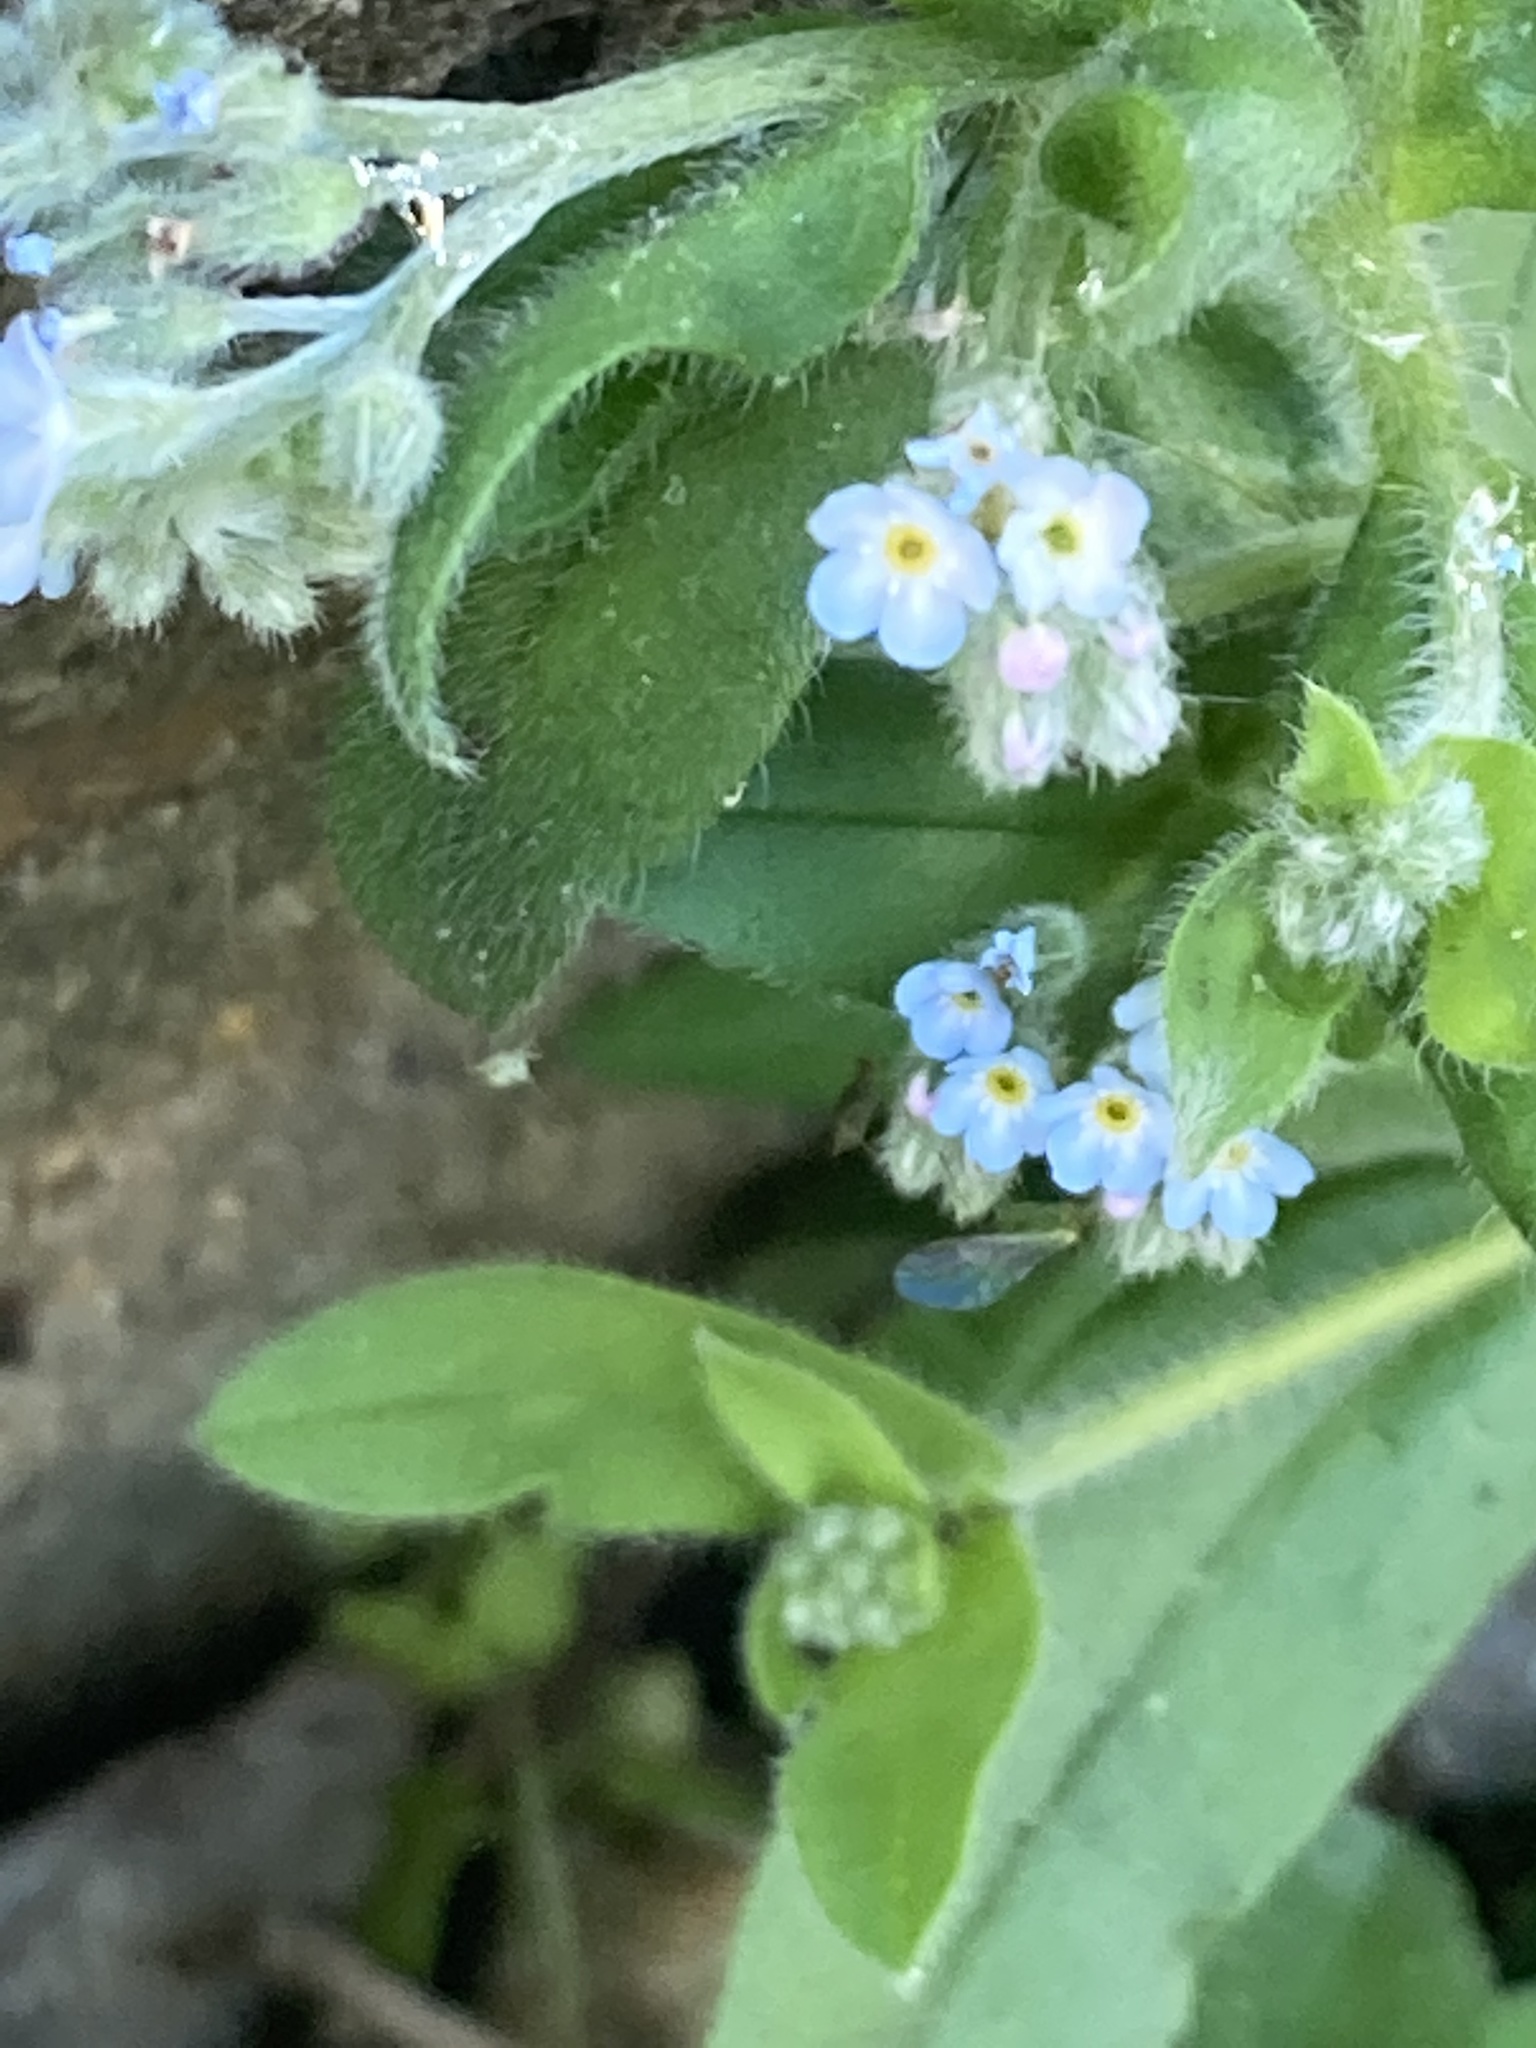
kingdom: Plantae
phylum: Tracheophyta
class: Magnoliopsida
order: Boraginales
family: Boraginaceae
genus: Myosotis
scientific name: Myosotis arvensis
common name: Field forget-me-not
